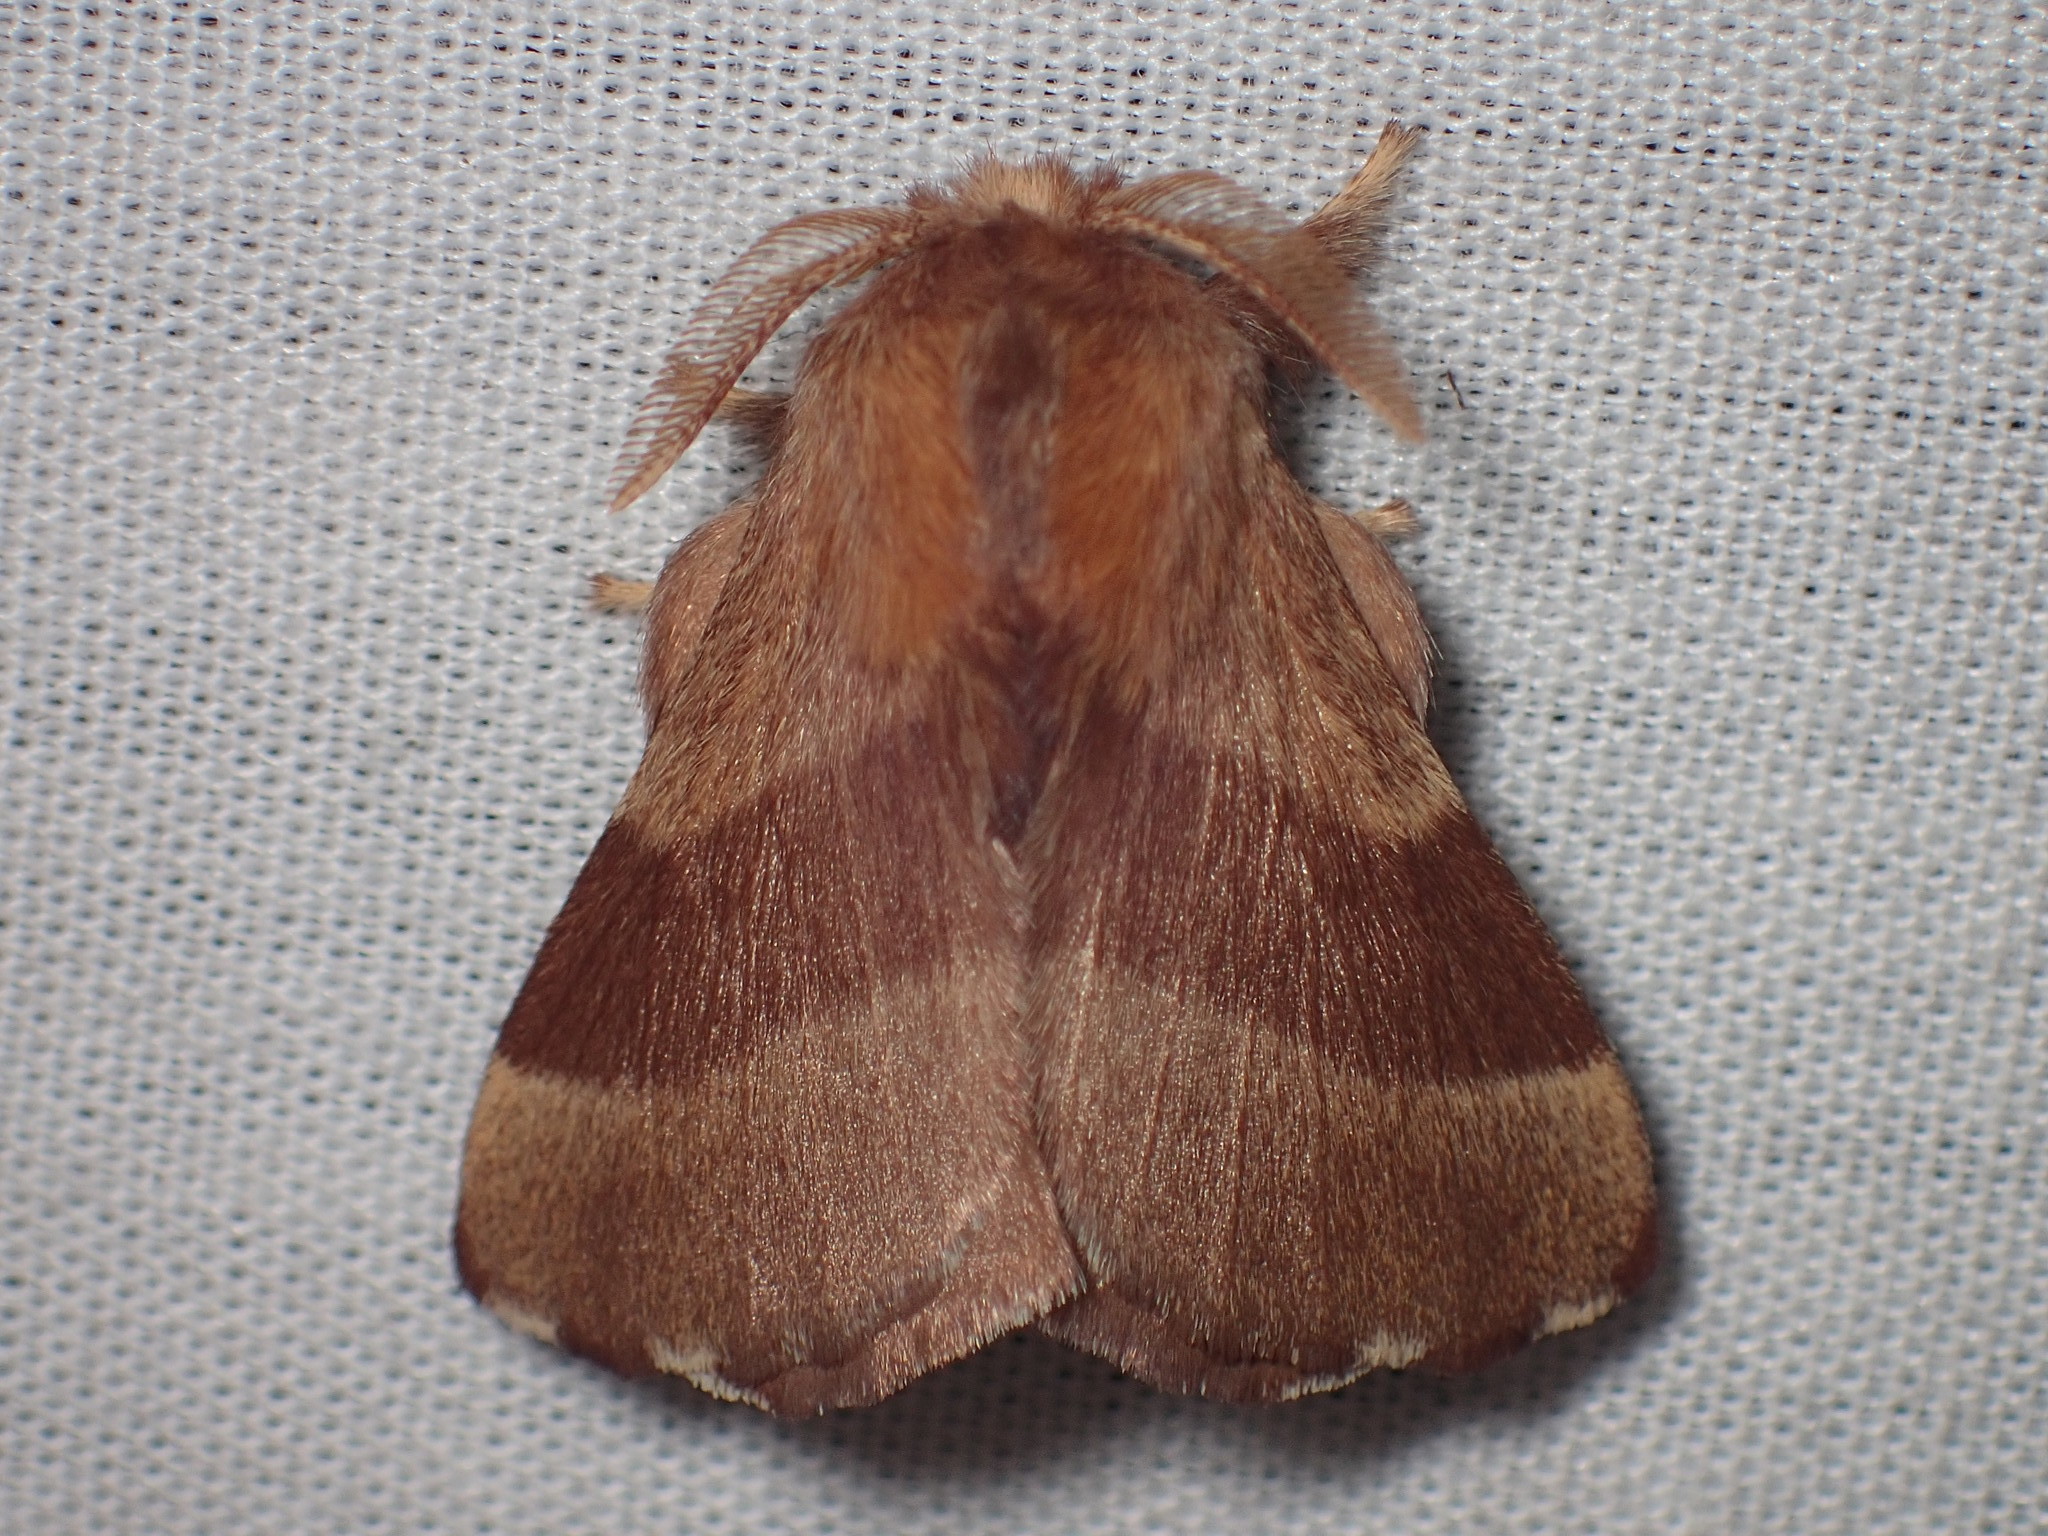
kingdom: Animalia
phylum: Arthropoda
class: Insecta
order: Lepidoptera
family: Lasiocampidae
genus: Malacosoma
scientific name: Malacosoma disstria
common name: Forest tent caterpillar
